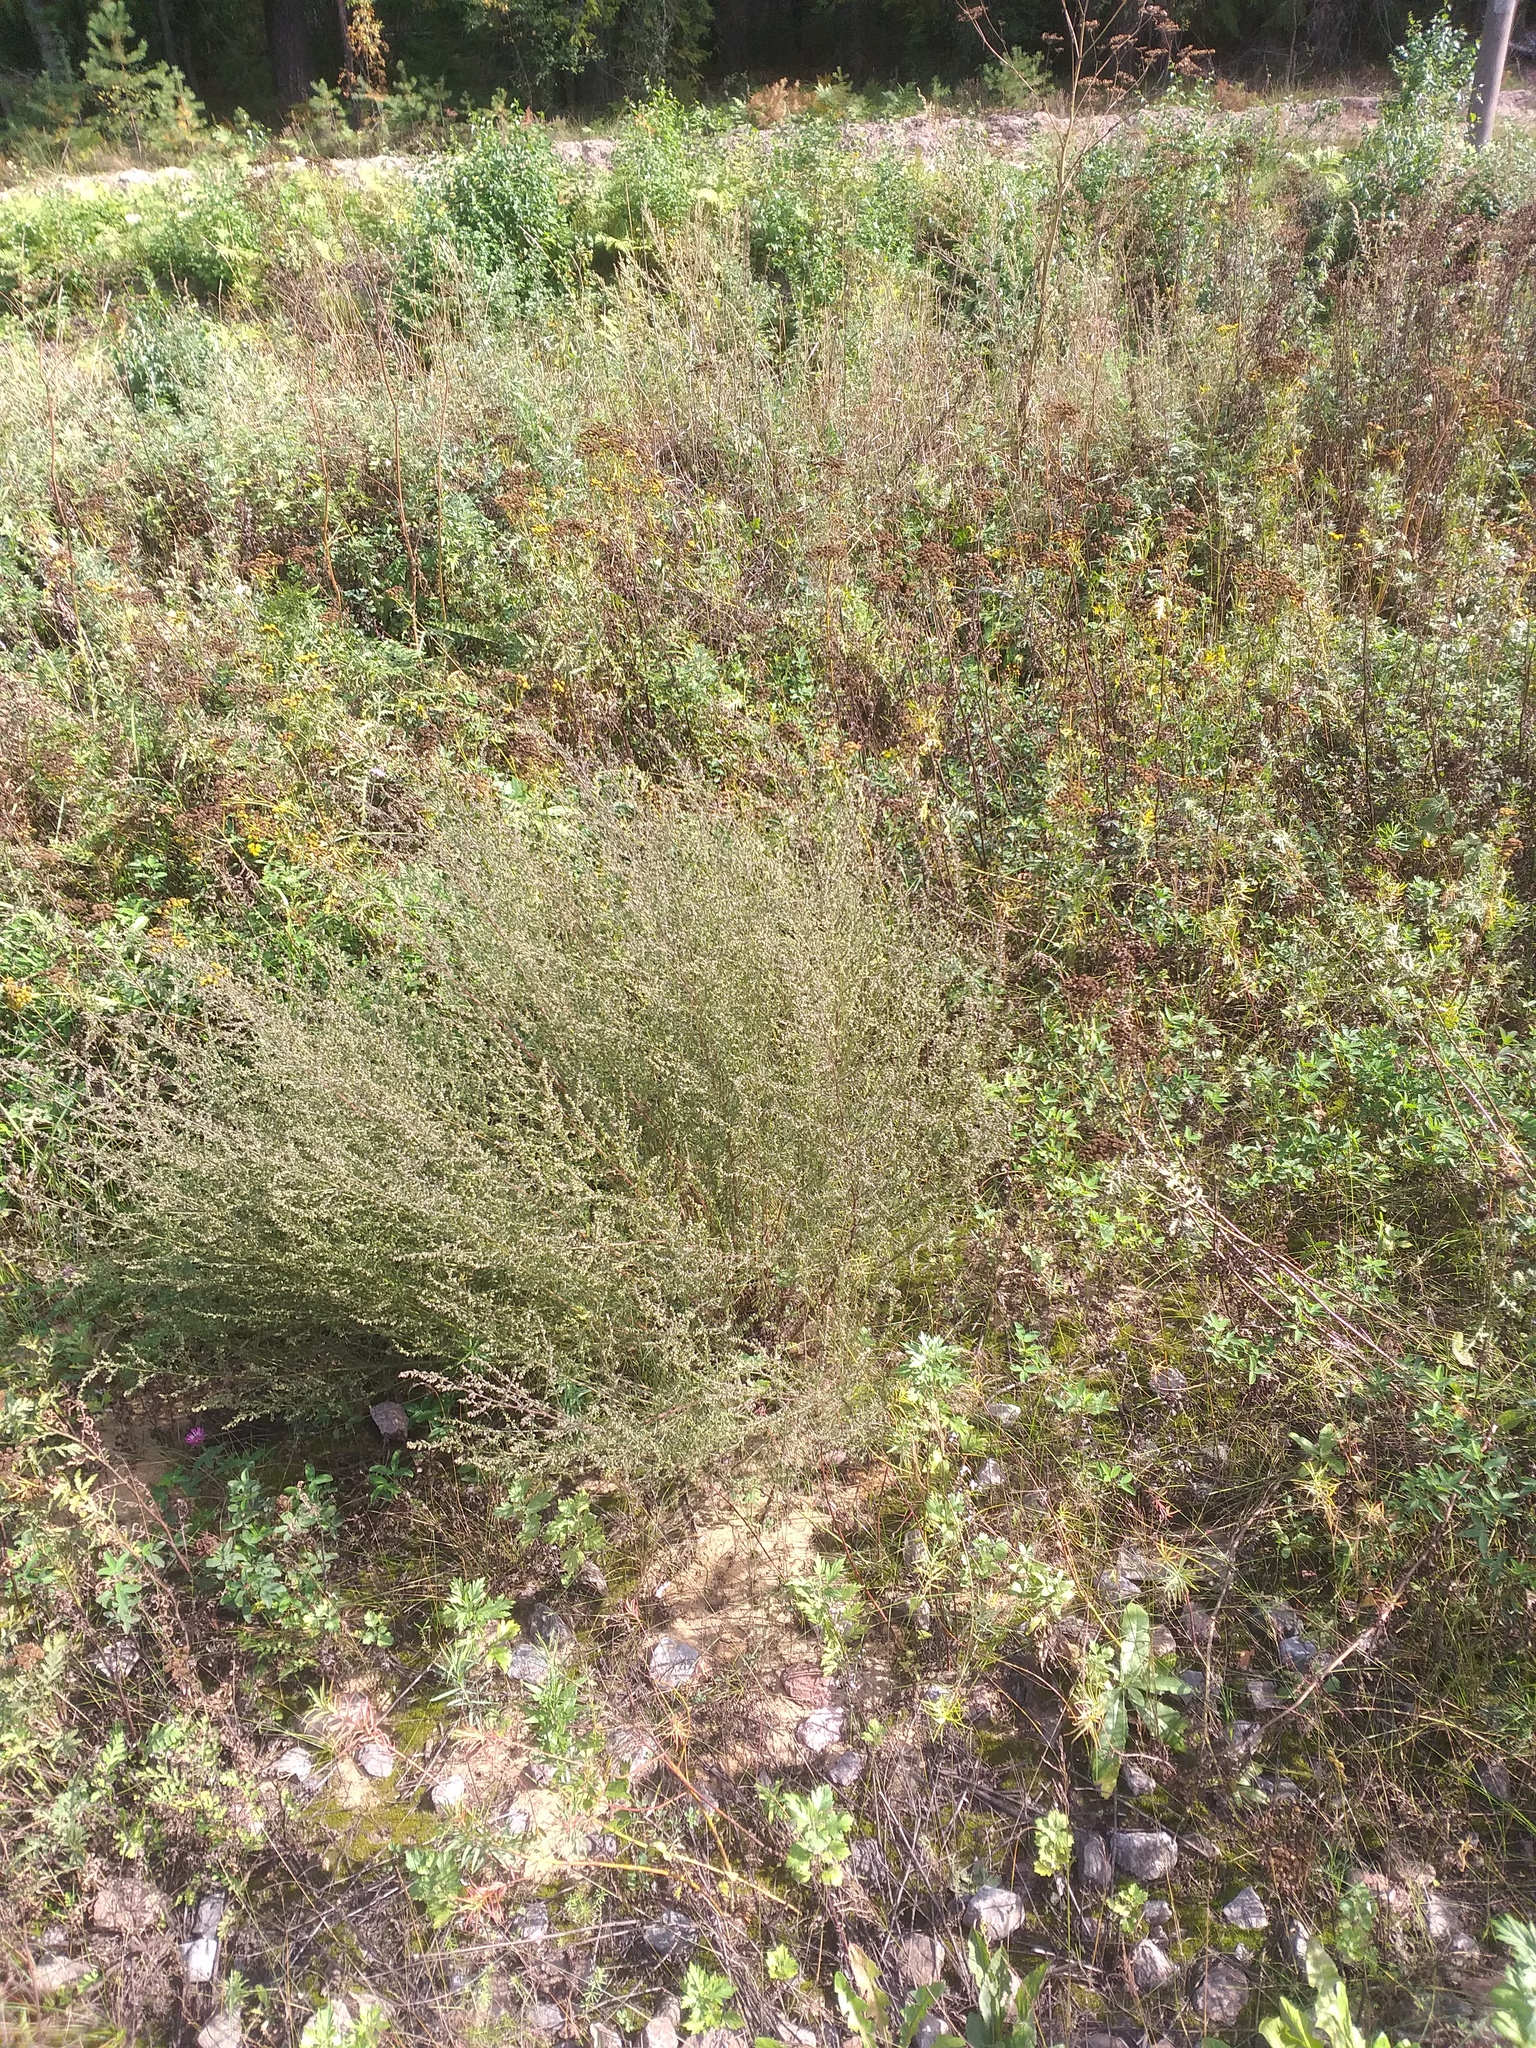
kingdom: Plantae
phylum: Tracheophyta
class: Magnoliopsida
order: Asterales
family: Asteraceae
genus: Artemisia
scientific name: Artemisia campestris
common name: Field wormwood
